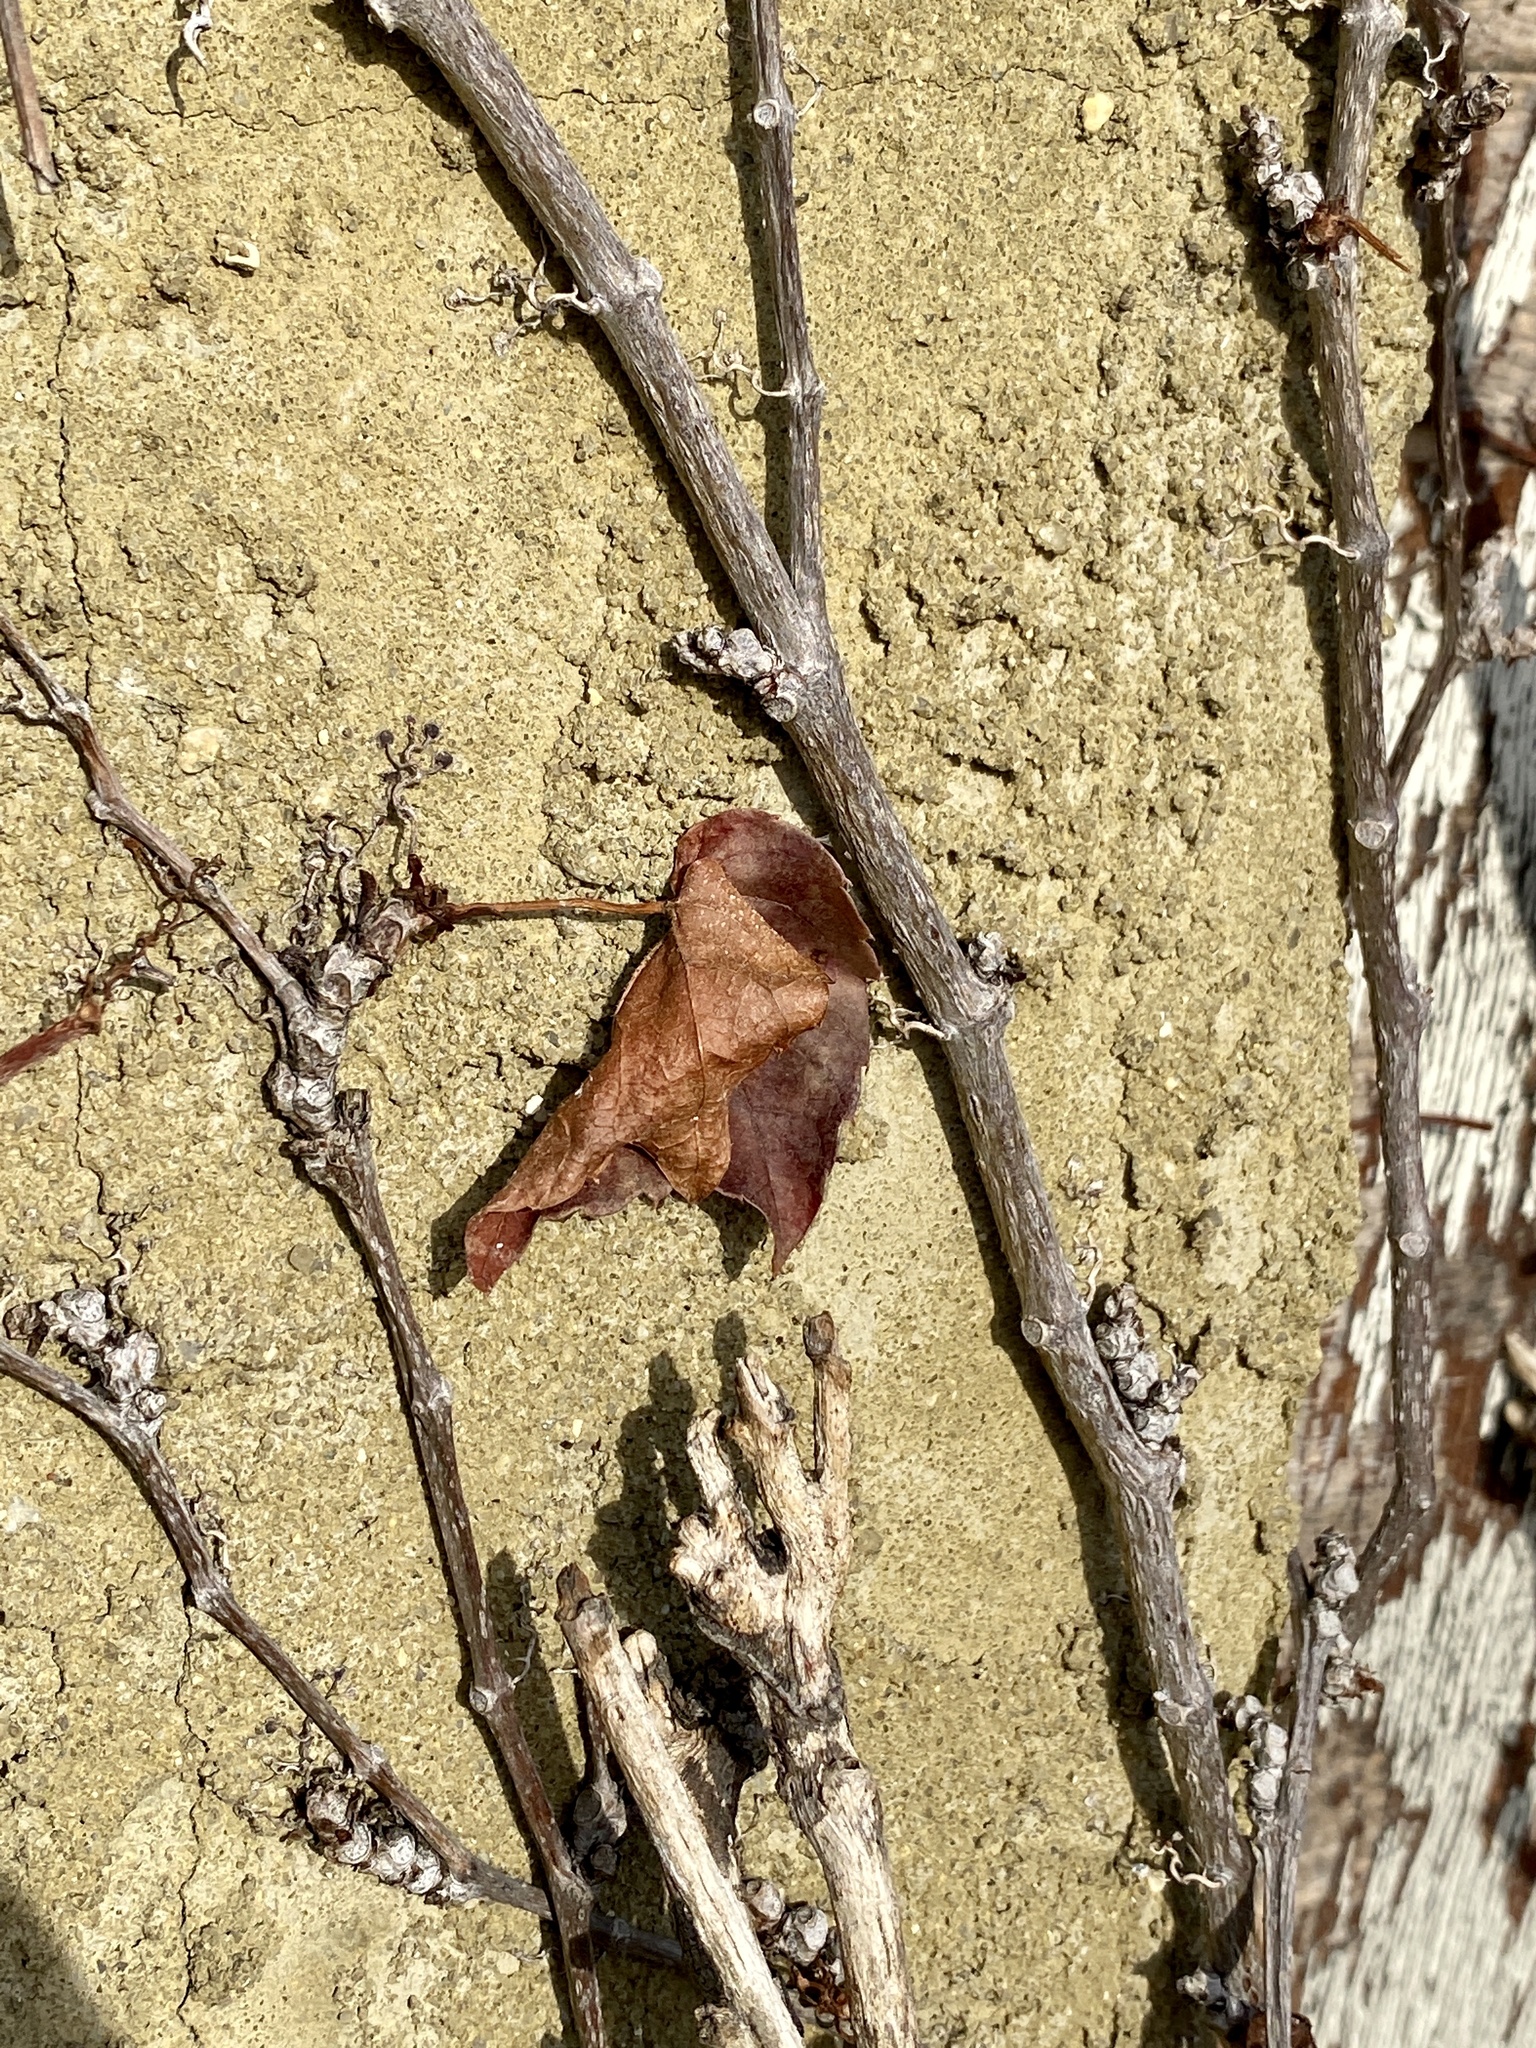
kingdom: Plantae
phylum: Tracheophyta
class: Magnoliopsida
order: Vitales
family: Vitaceae
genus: Parthenocissus
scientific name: Parthenocissus tricuspidata
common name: Boston ivy
